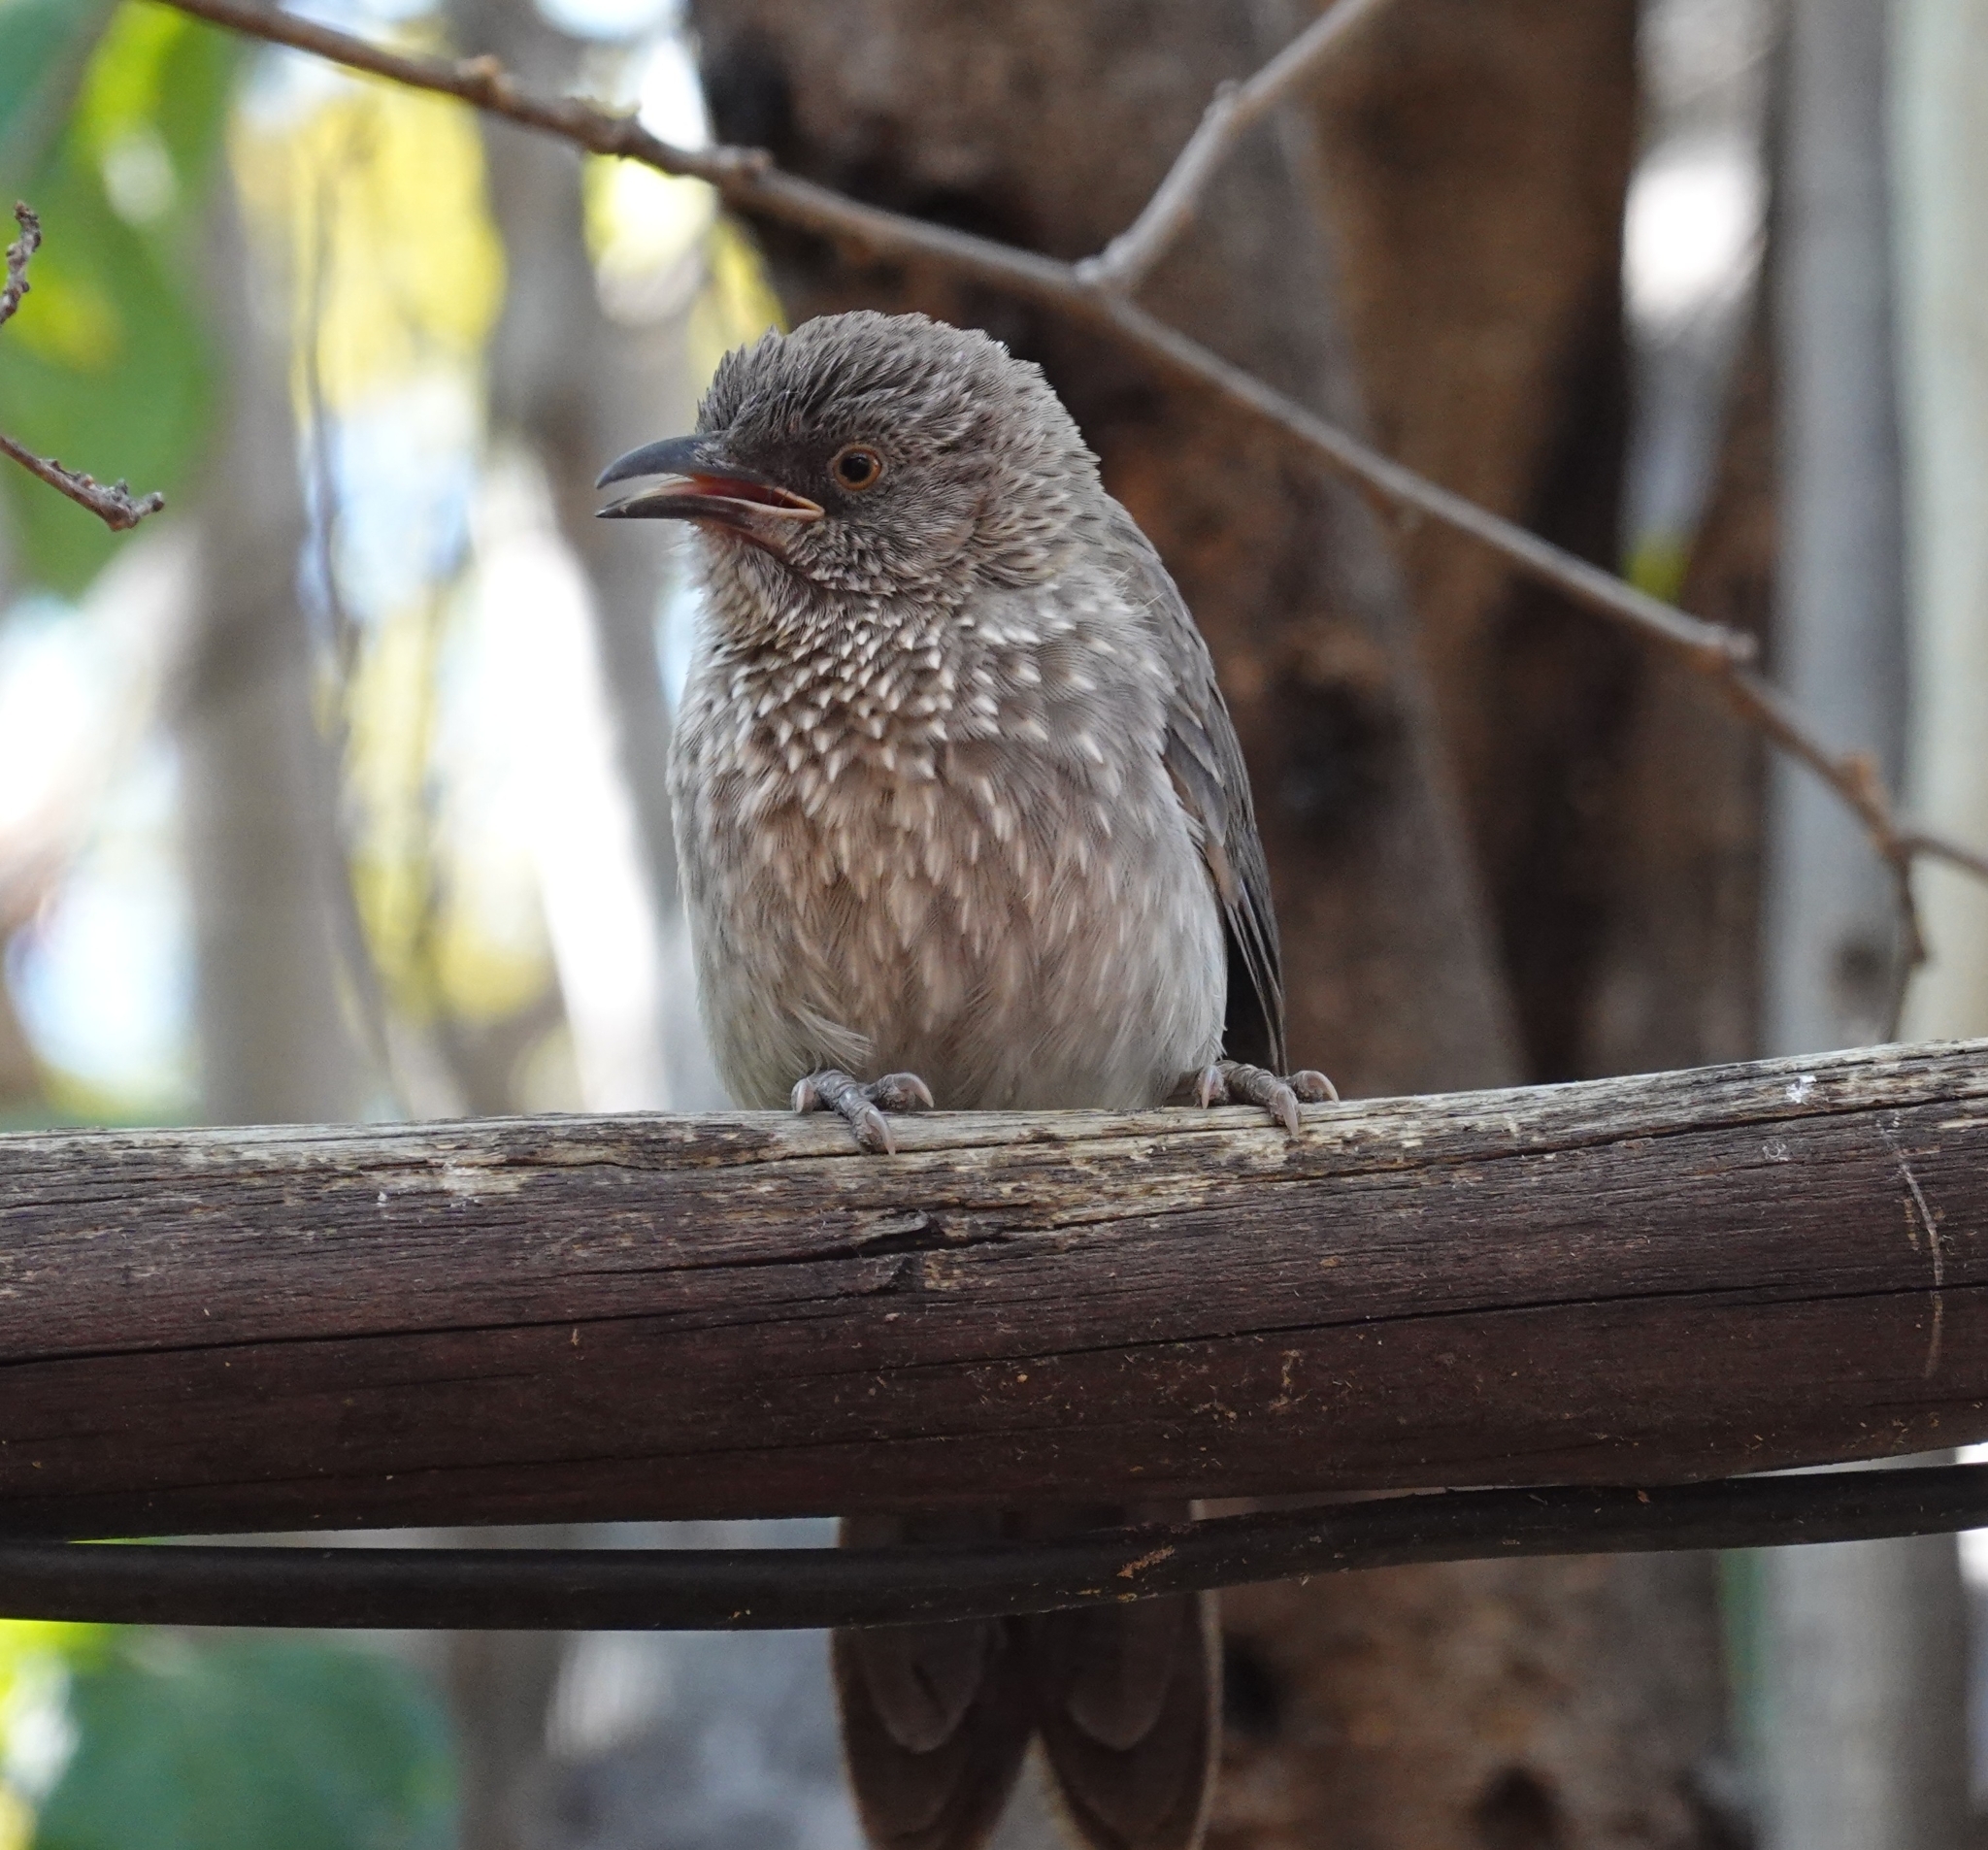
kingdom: Animalia
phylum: Chordata
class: Aves
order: Passeriformes
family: Leiothrichidae
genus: Turdoides
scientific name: Turdoides jardineii
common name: Arrow-marked babbler
